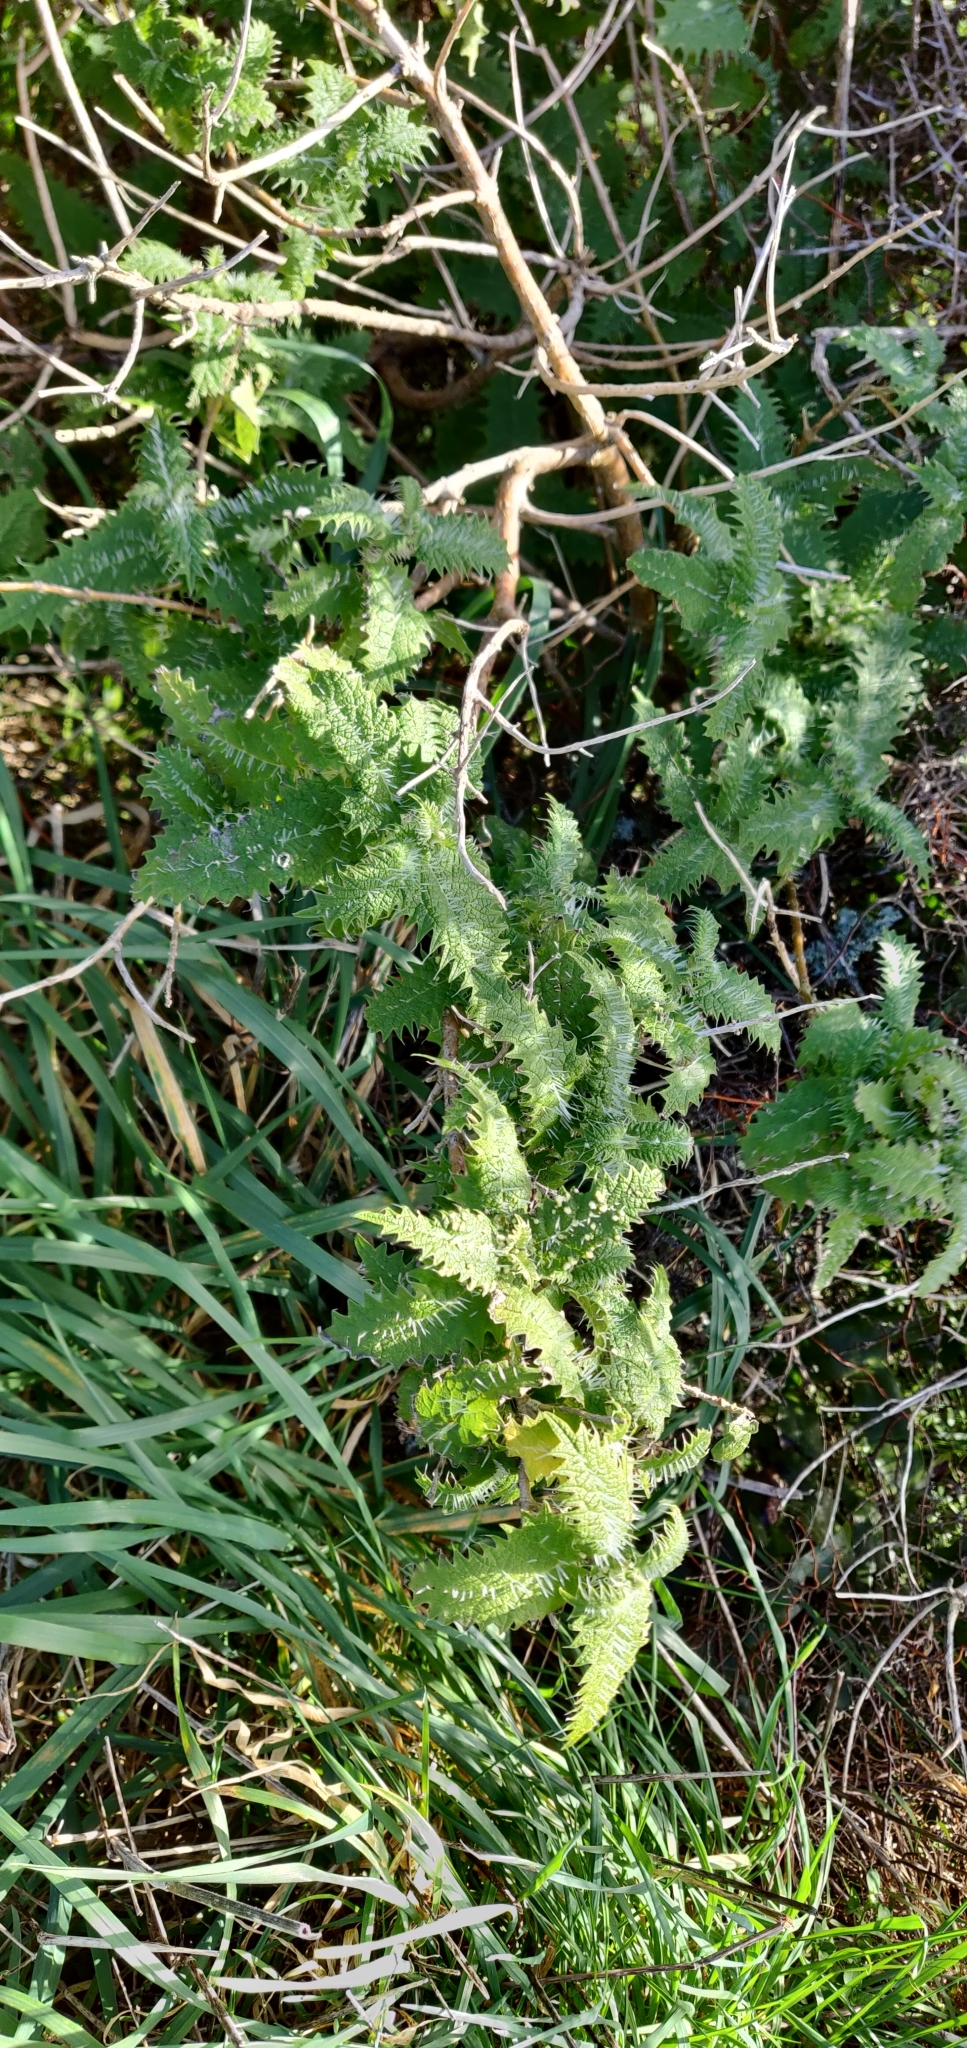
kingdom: Plantae
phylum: Tracheophyta
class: Magnoliopsida
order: Rosales
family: Urticaceae
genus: Urtica
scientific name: Urtica ferox
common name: Tree nettle
